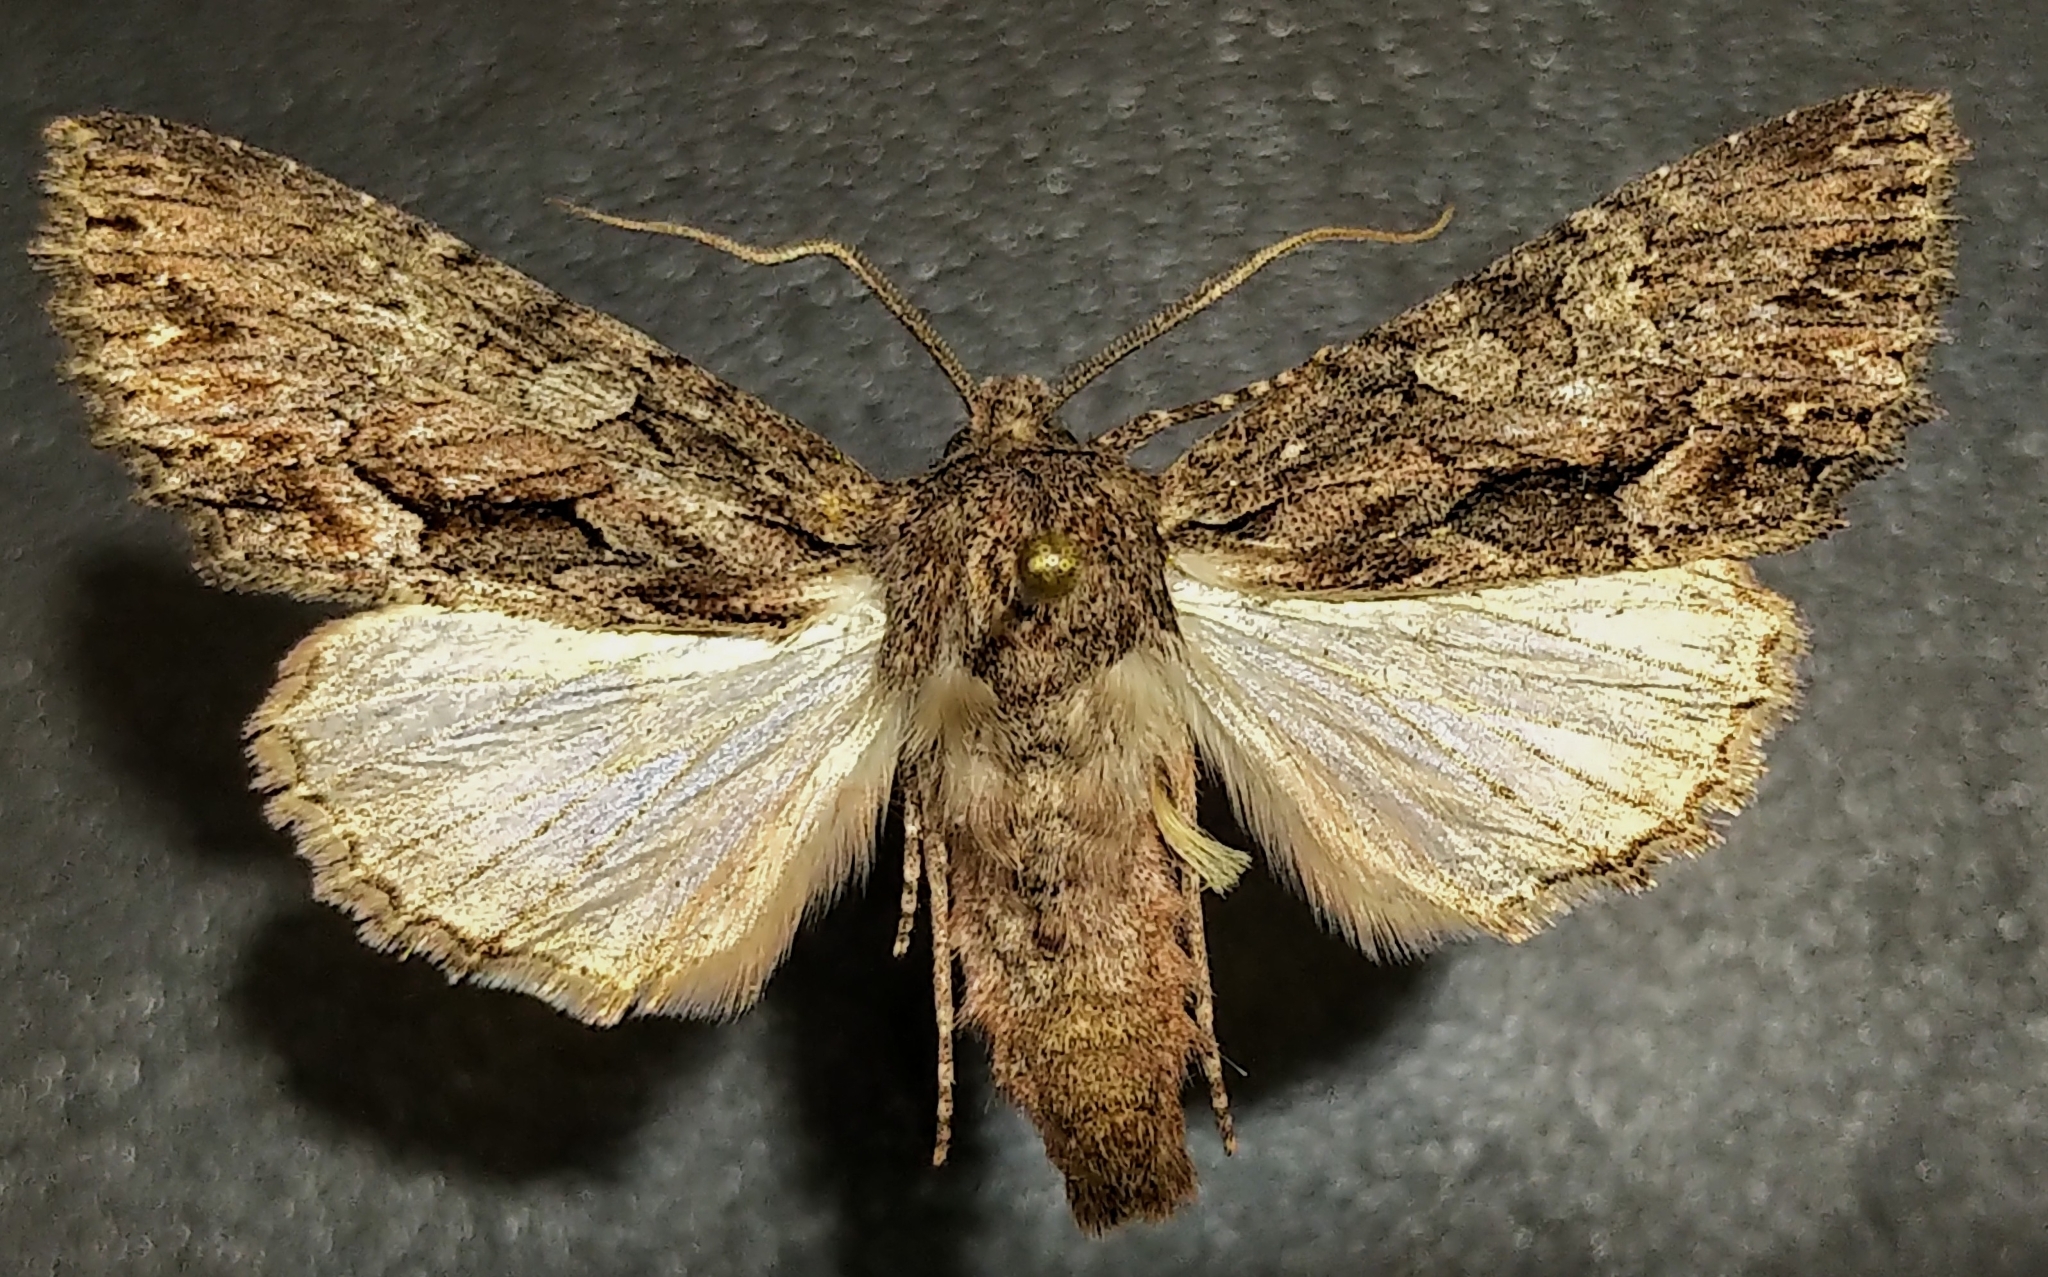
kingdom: Animalia
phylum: Arthropoda
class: Insecta
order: Lepidoptera
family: Noctuidae
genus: Fishia
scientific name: Fishia discors
